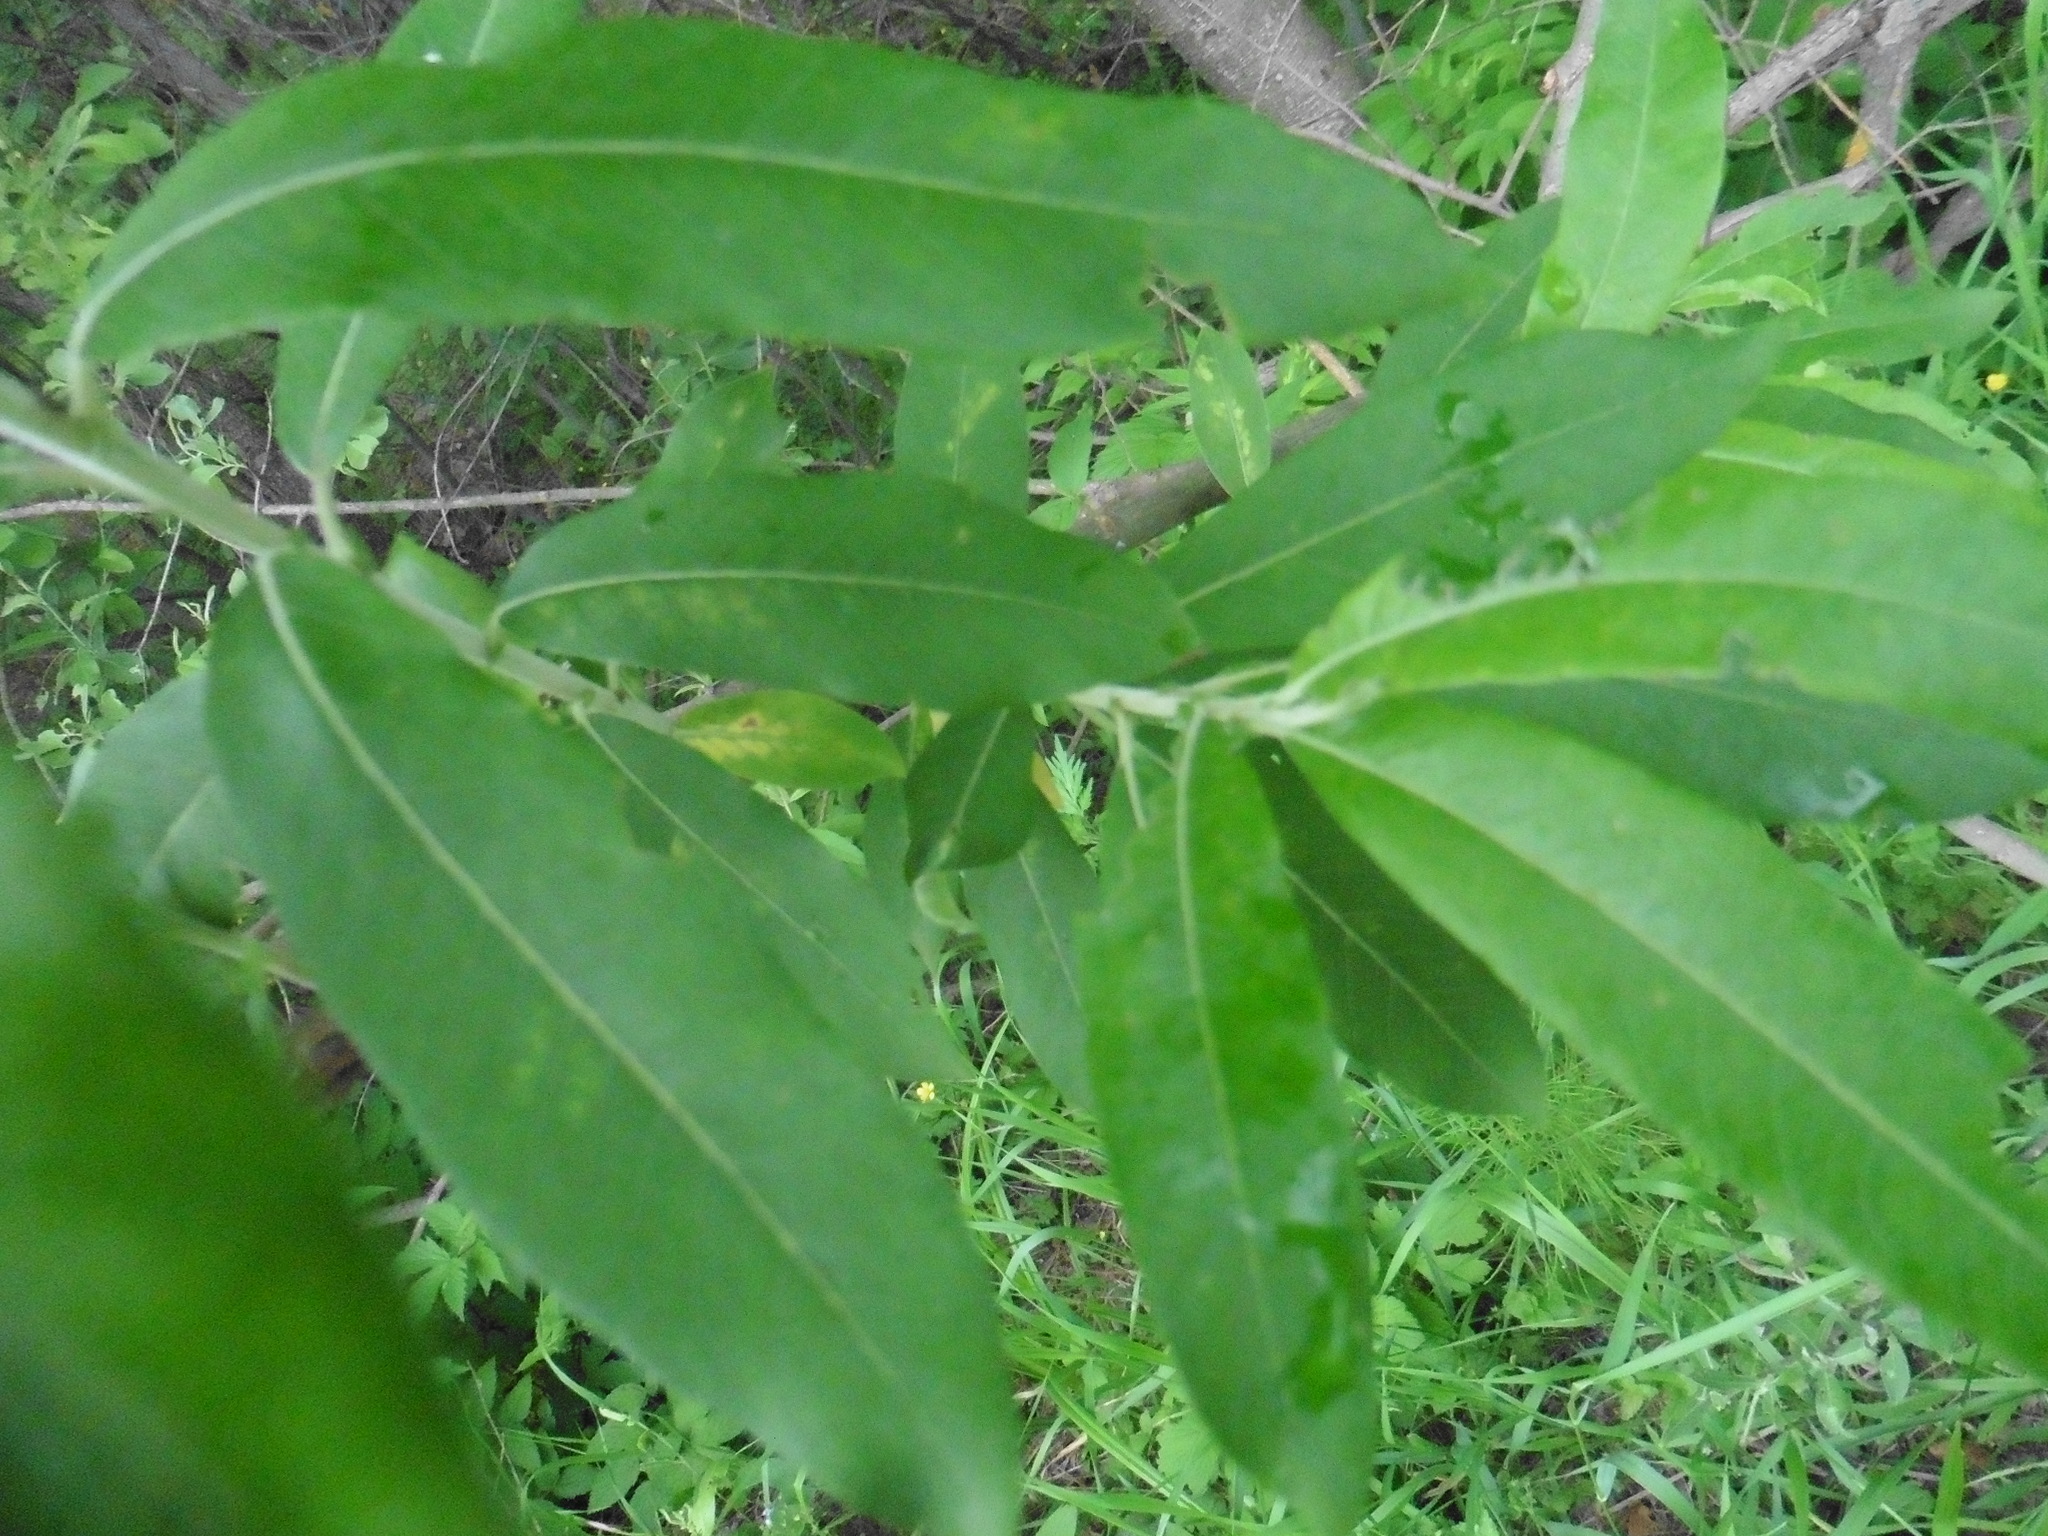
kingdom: Plantae
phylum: Tracheophyta
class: Magnoliopsida
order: Malpighiales
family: Salicaceae
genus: Salix
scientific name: Salix gmelinii
